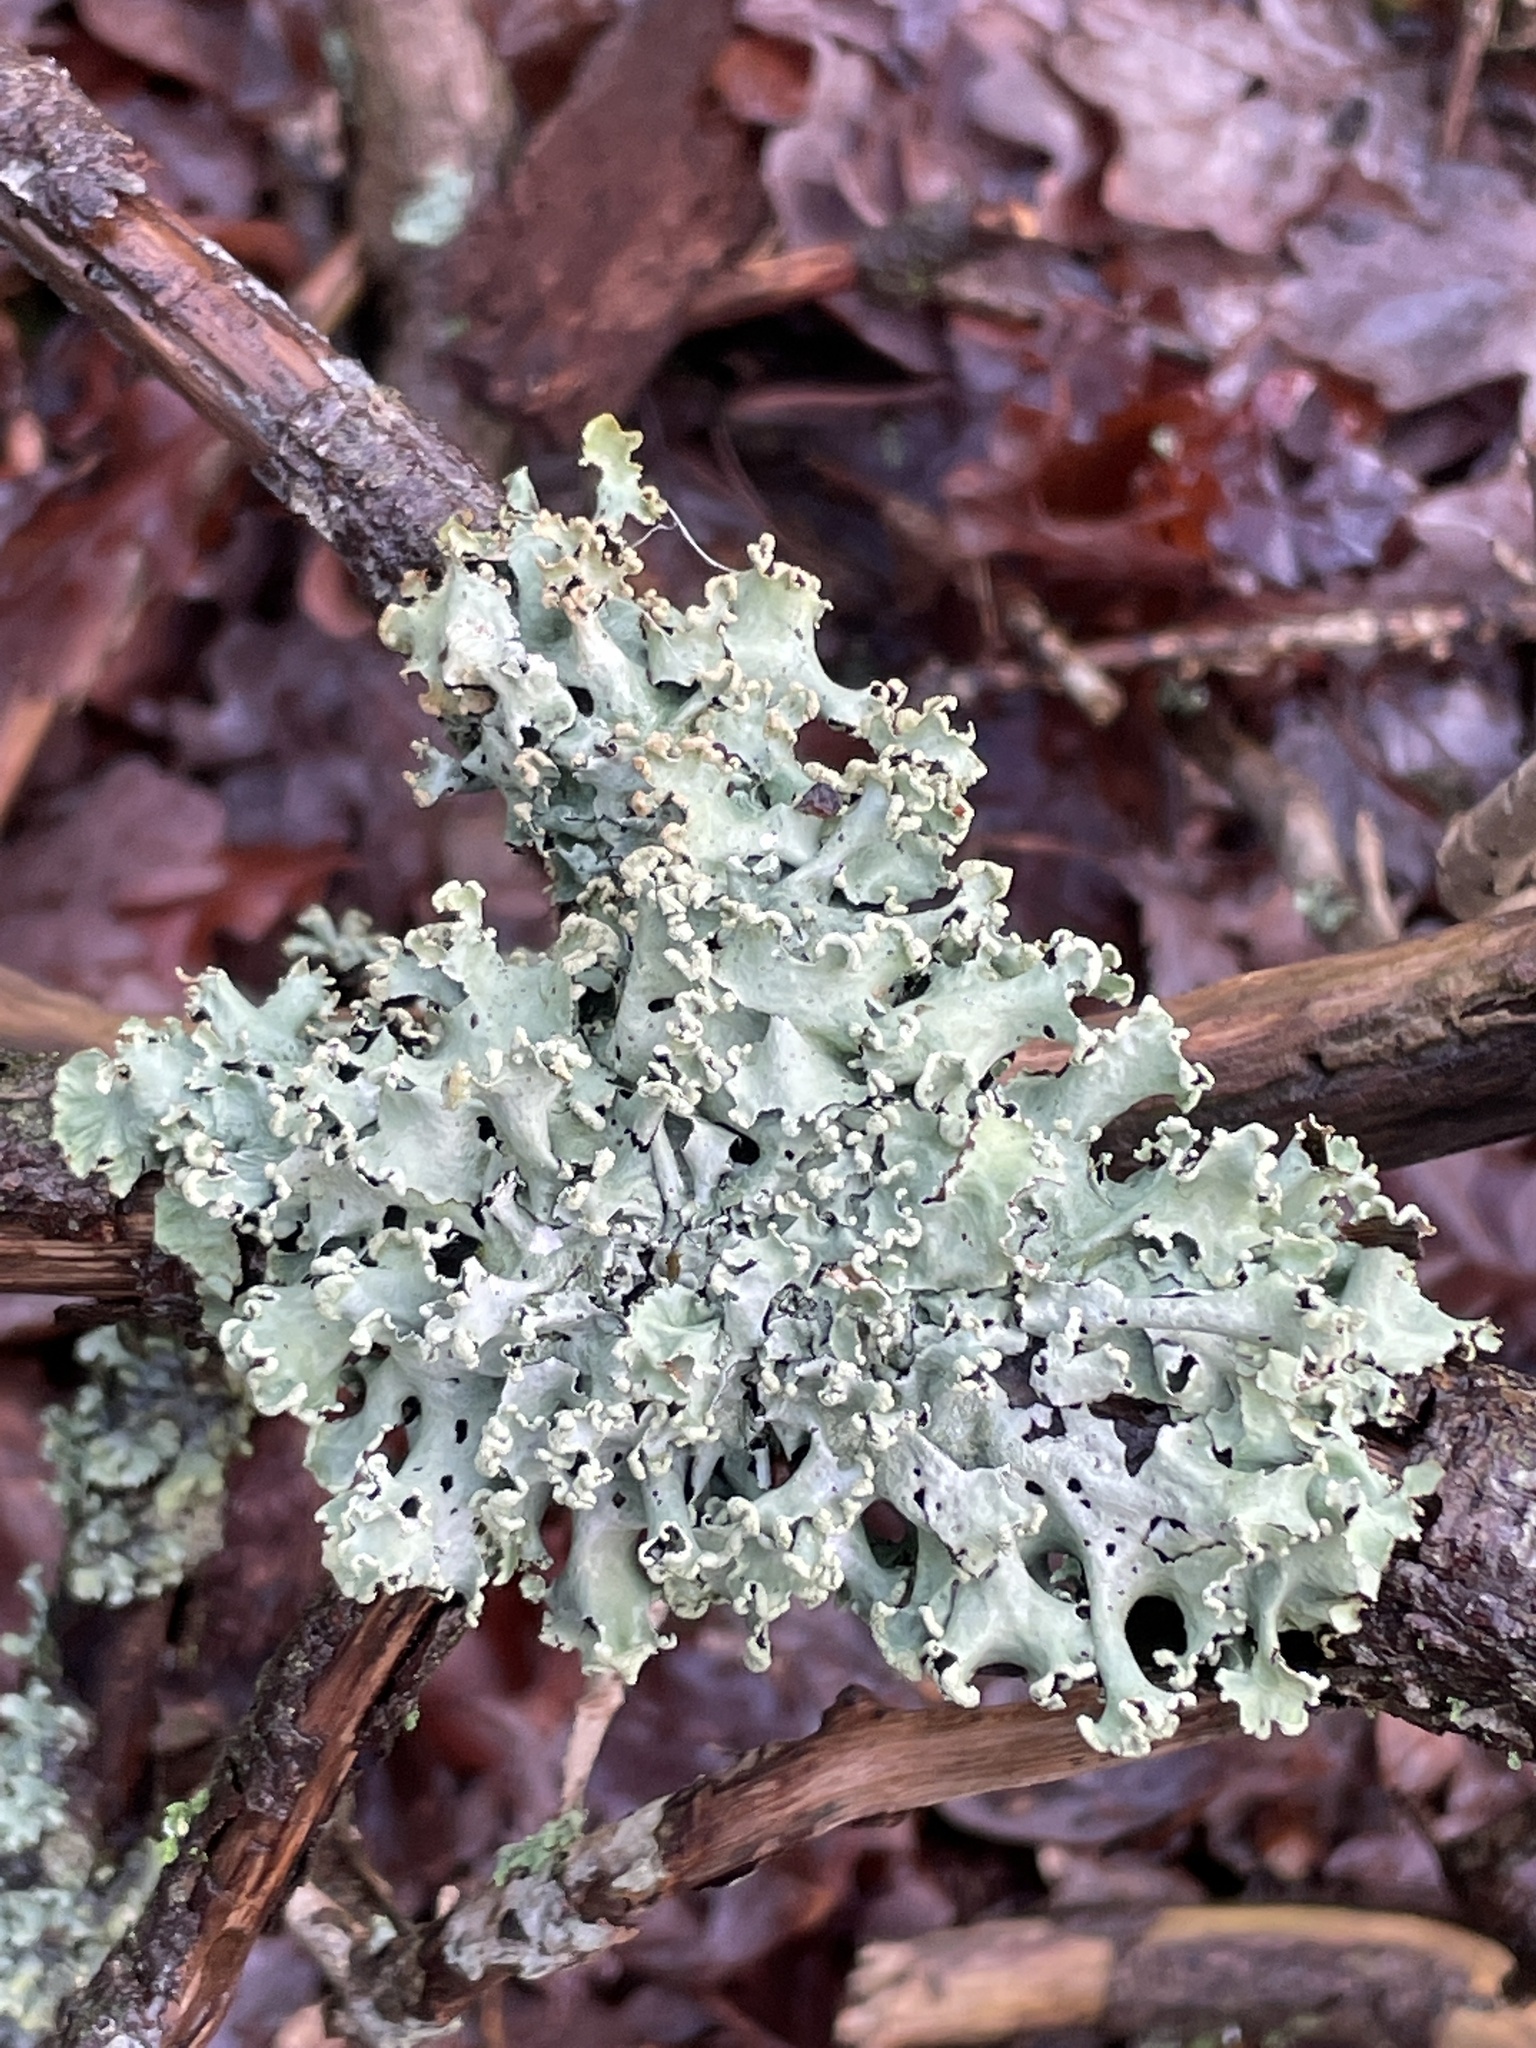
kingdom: Fungi
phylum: Ascomycota
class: Lecanoromycetes
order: Lecanorales
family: Parmeliaceae
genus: Parmotrema
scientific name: Parmotrema perlatum
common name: Black stone flower
